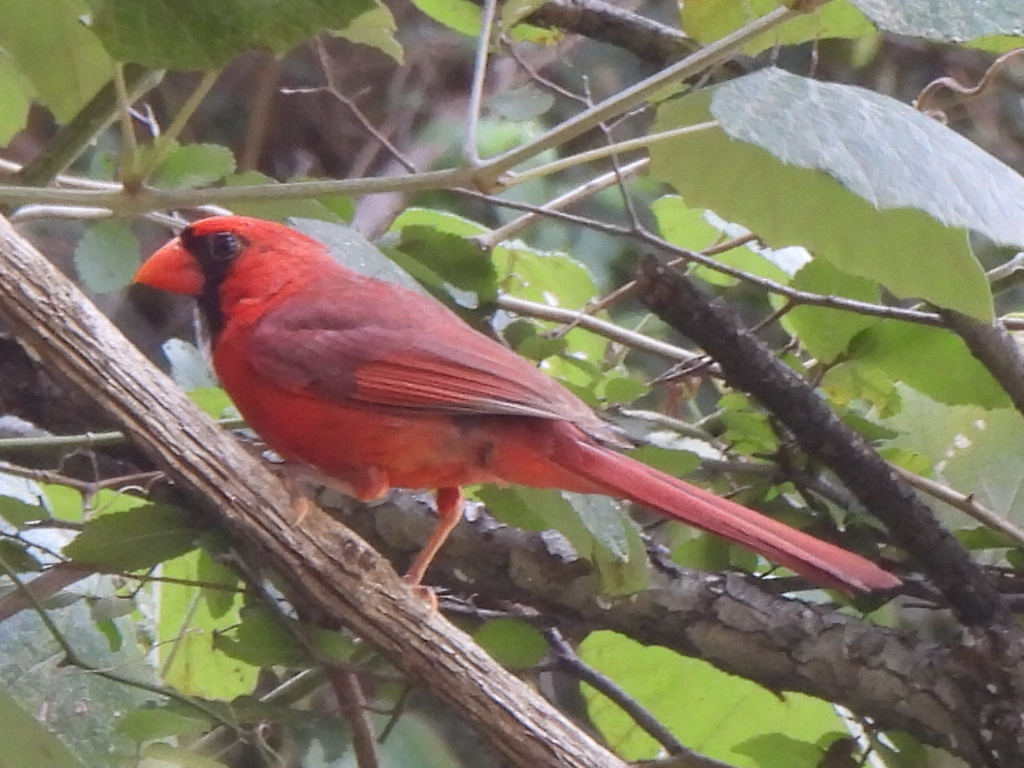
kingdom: Animalia
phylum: Chordata
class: Aves
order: Passeriformes
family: Cardinalidae
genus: Cardinalis
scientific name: Cardinalis cardinalis
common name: Northern cardinal
